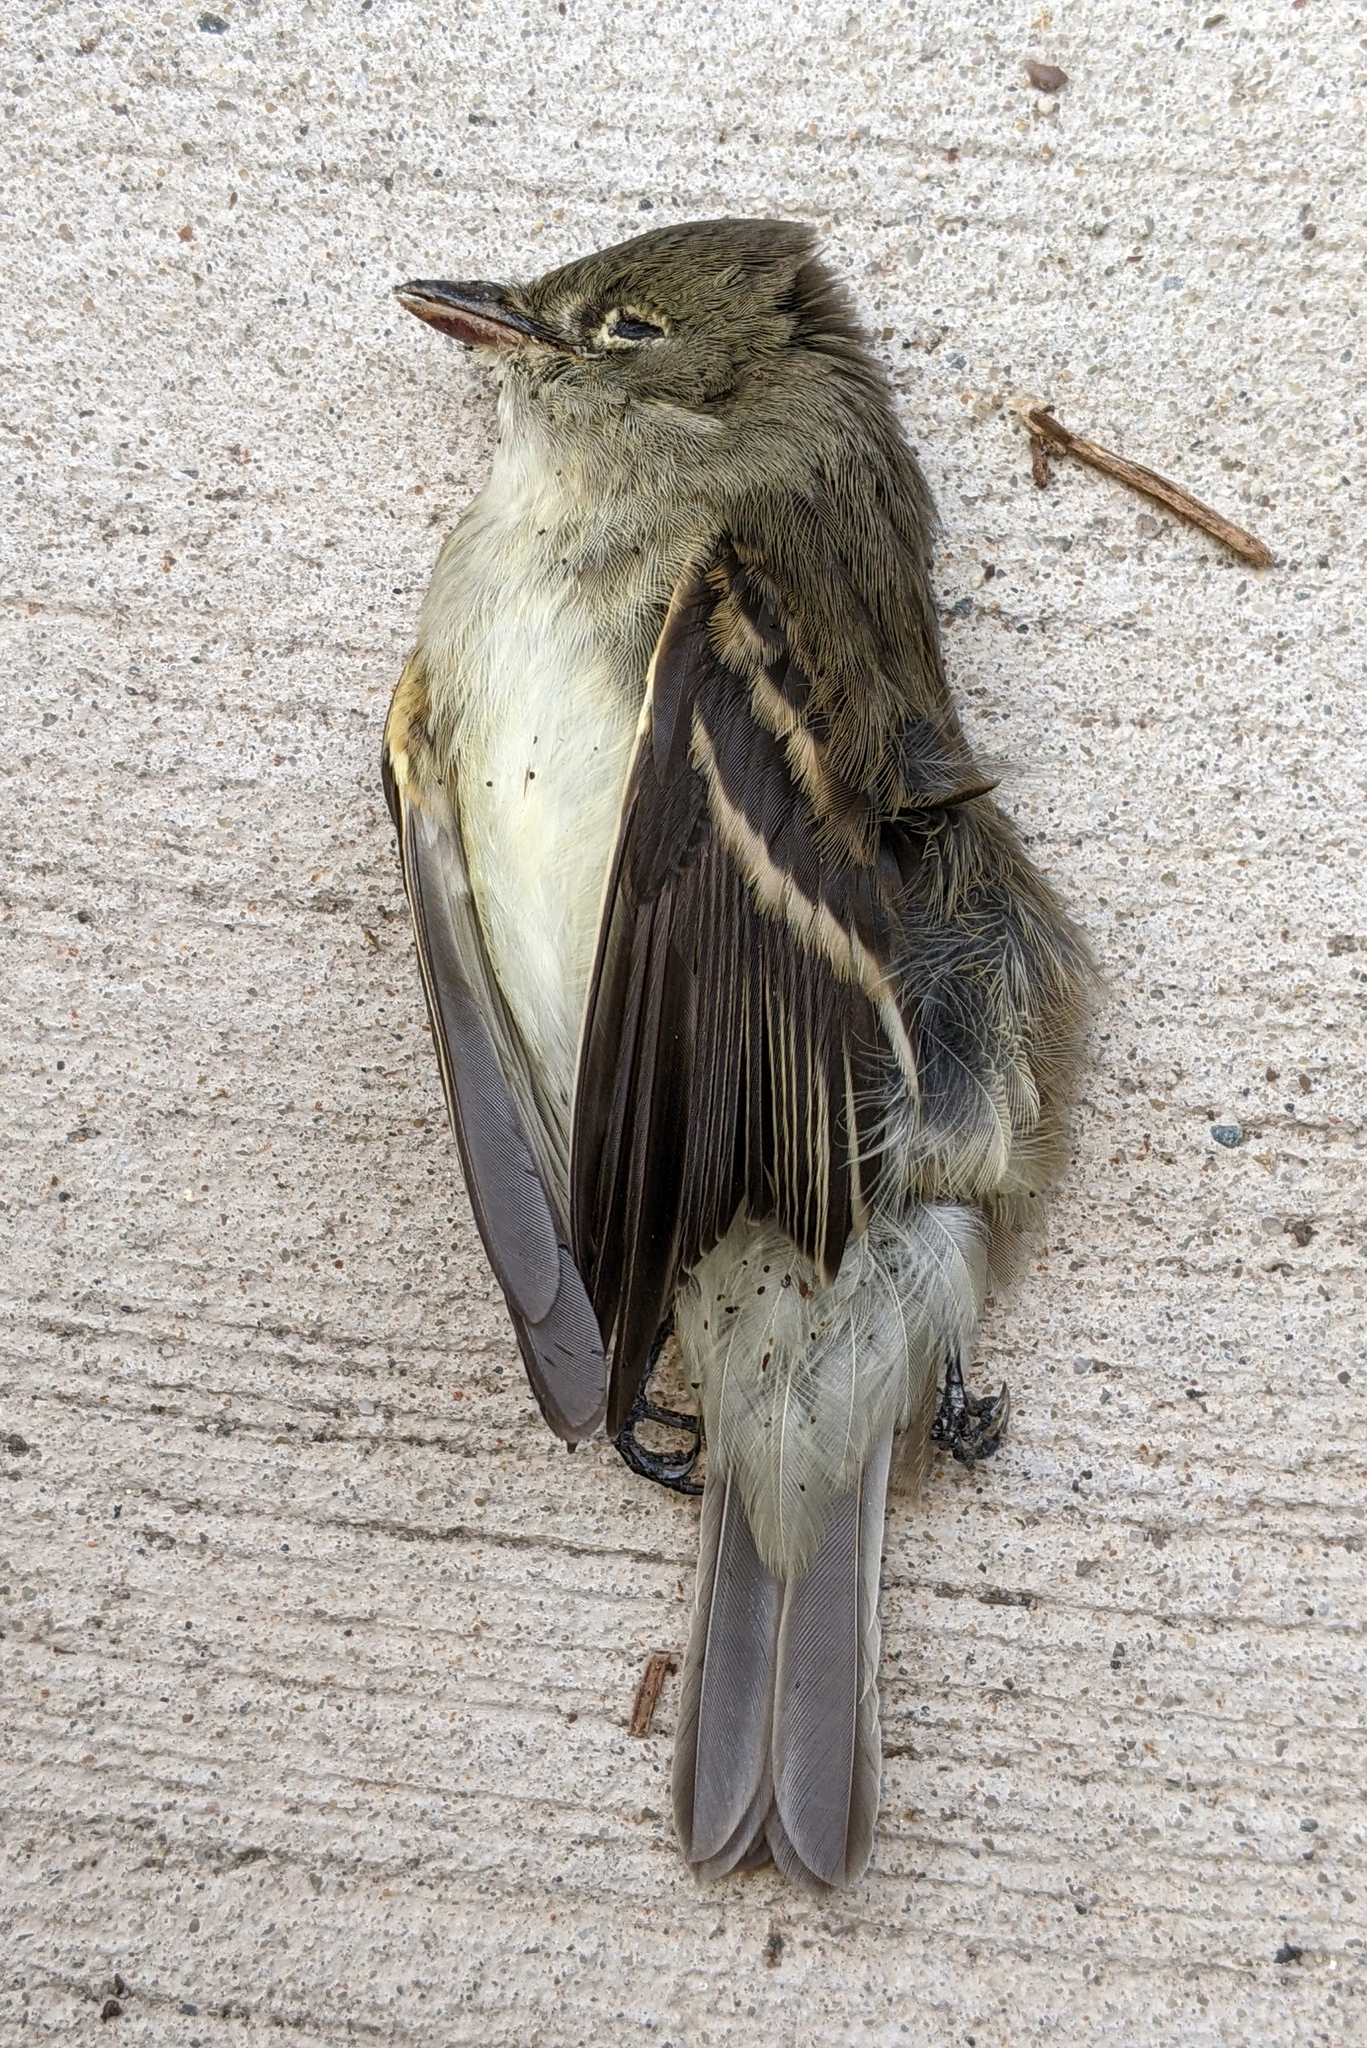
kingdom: Animalia
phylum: Chordata
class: Aves
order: Passeriformes
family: Tyrannidae
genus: Empidonax
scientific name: Empidonax alnorum
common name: Alder flycatcher
